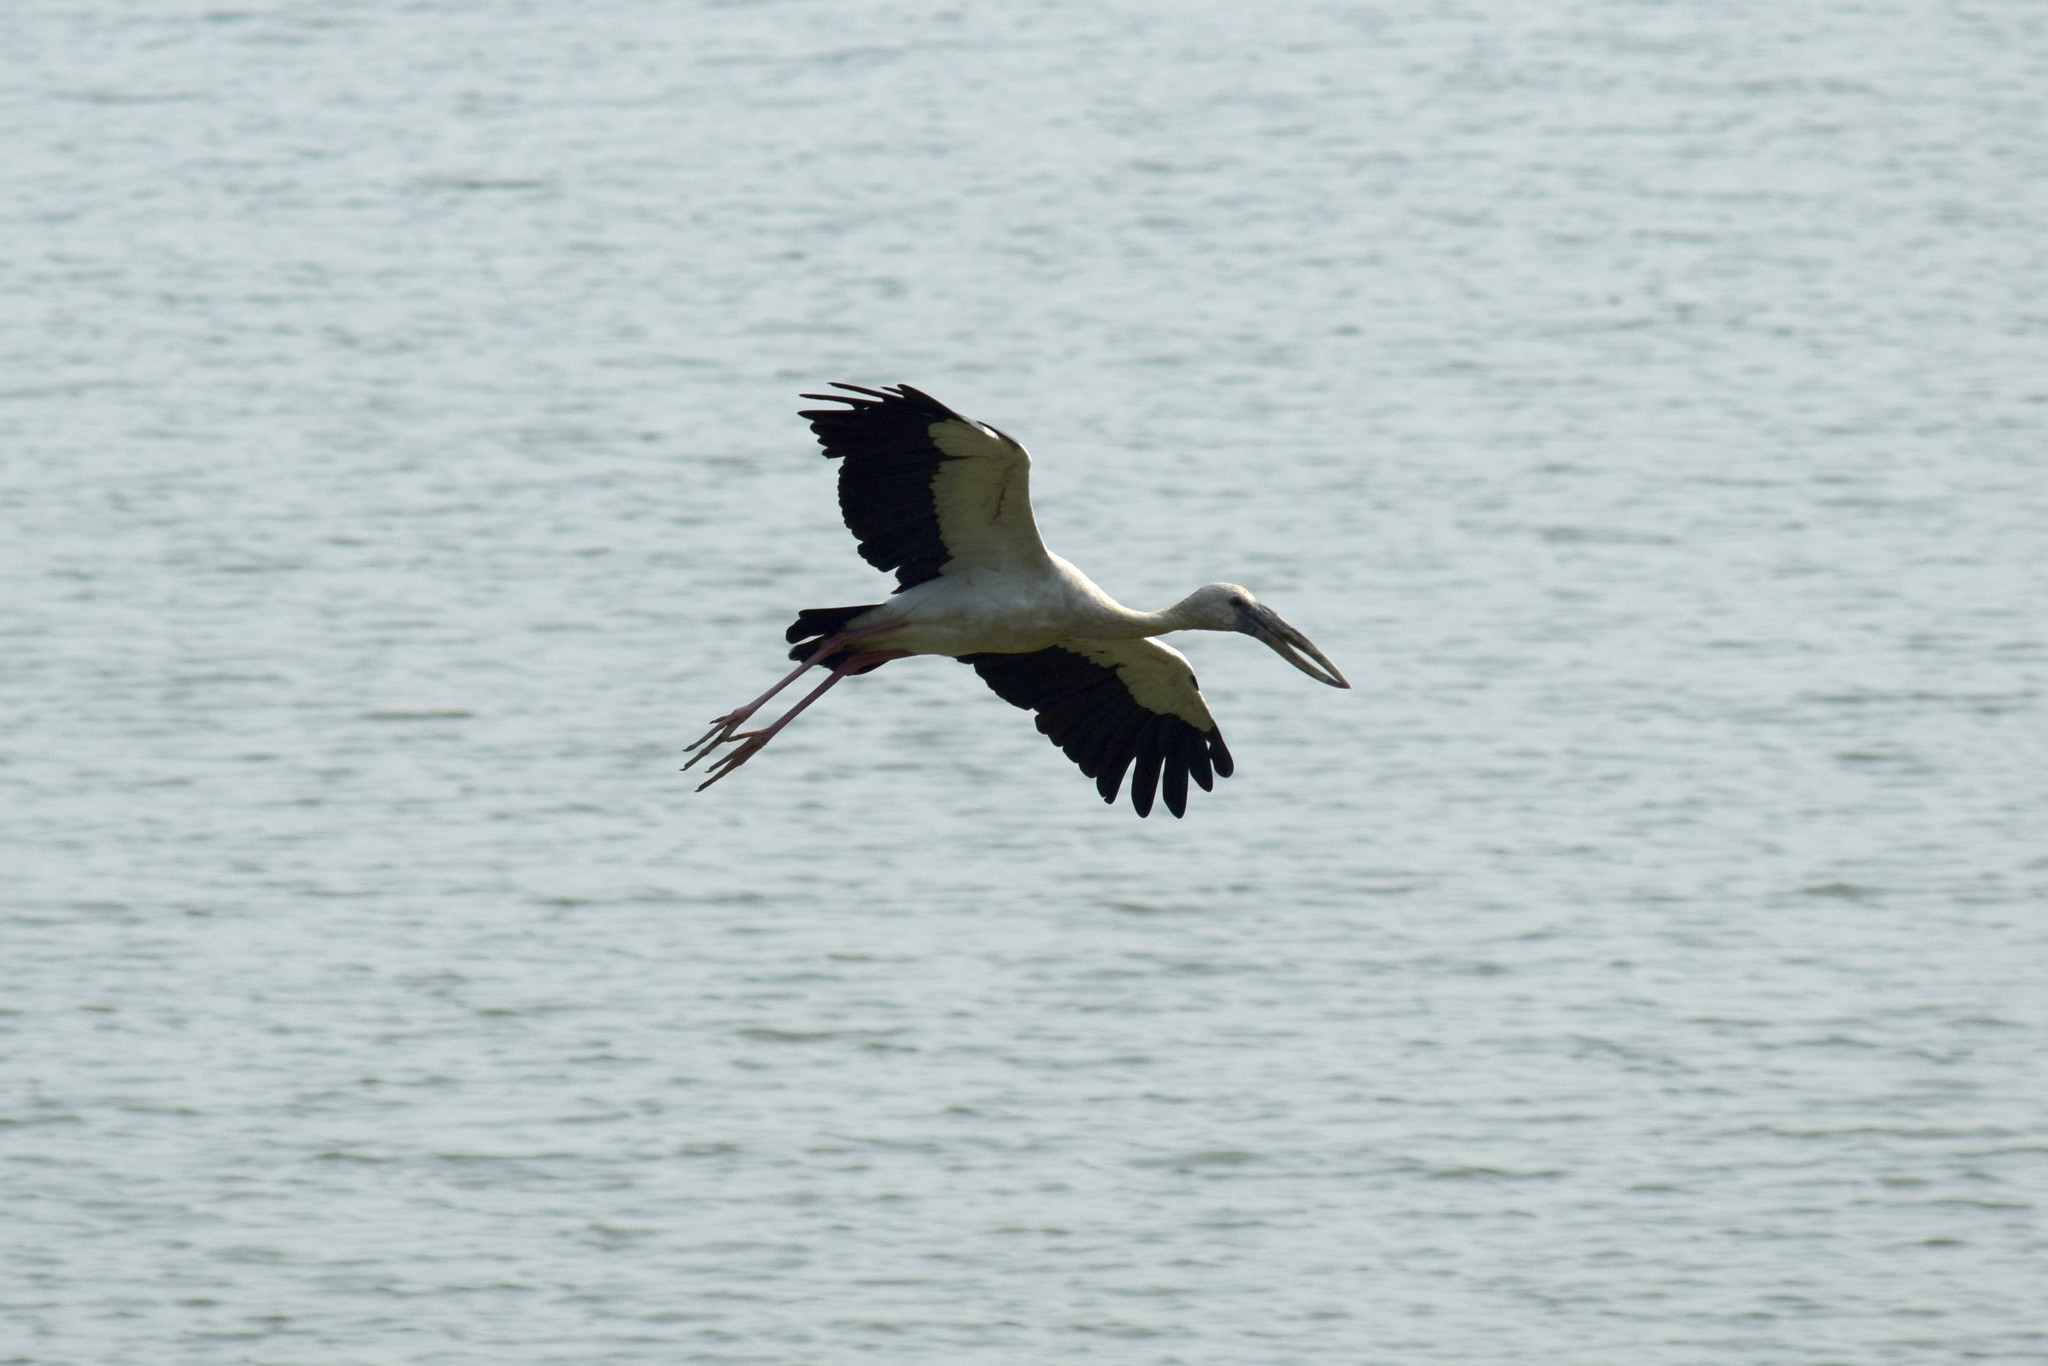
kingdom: Animalia
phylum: Chordata
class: Aves
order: Ciconiiformes
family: Ciconiidae
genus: Anastomus
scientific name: Anastomus oscitans
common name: Asian openbill
